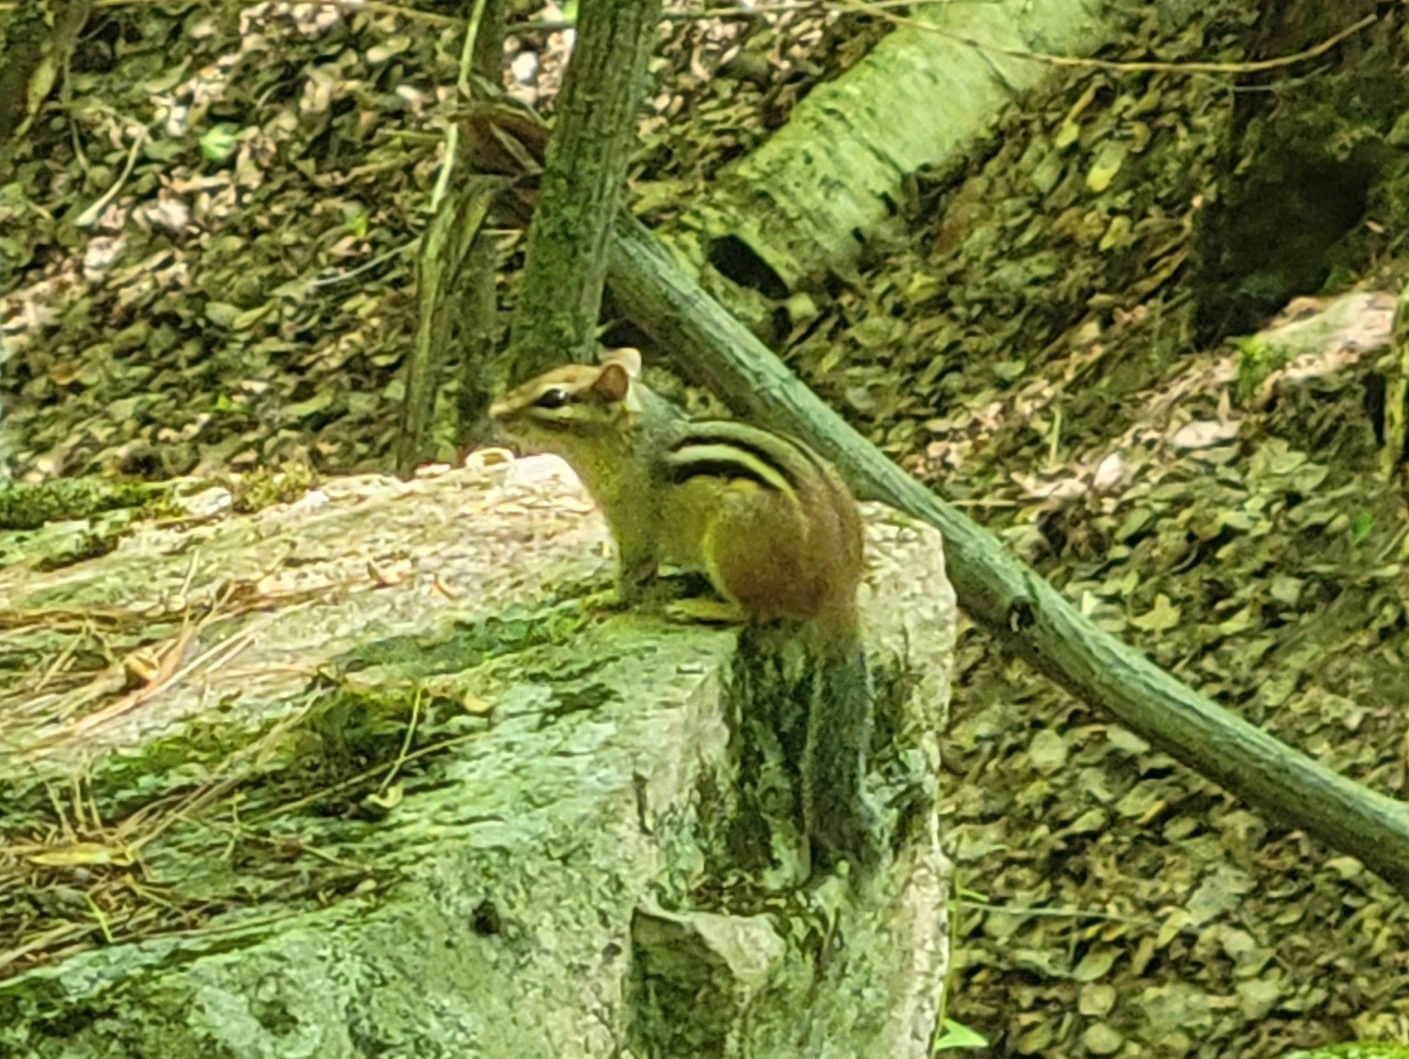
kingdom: Animalia
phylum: Chordata
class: Mammalia
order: Rodentia
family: Sciuridae
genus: Tamias
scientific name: Tamias striatus
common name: Eastern chipmunk
